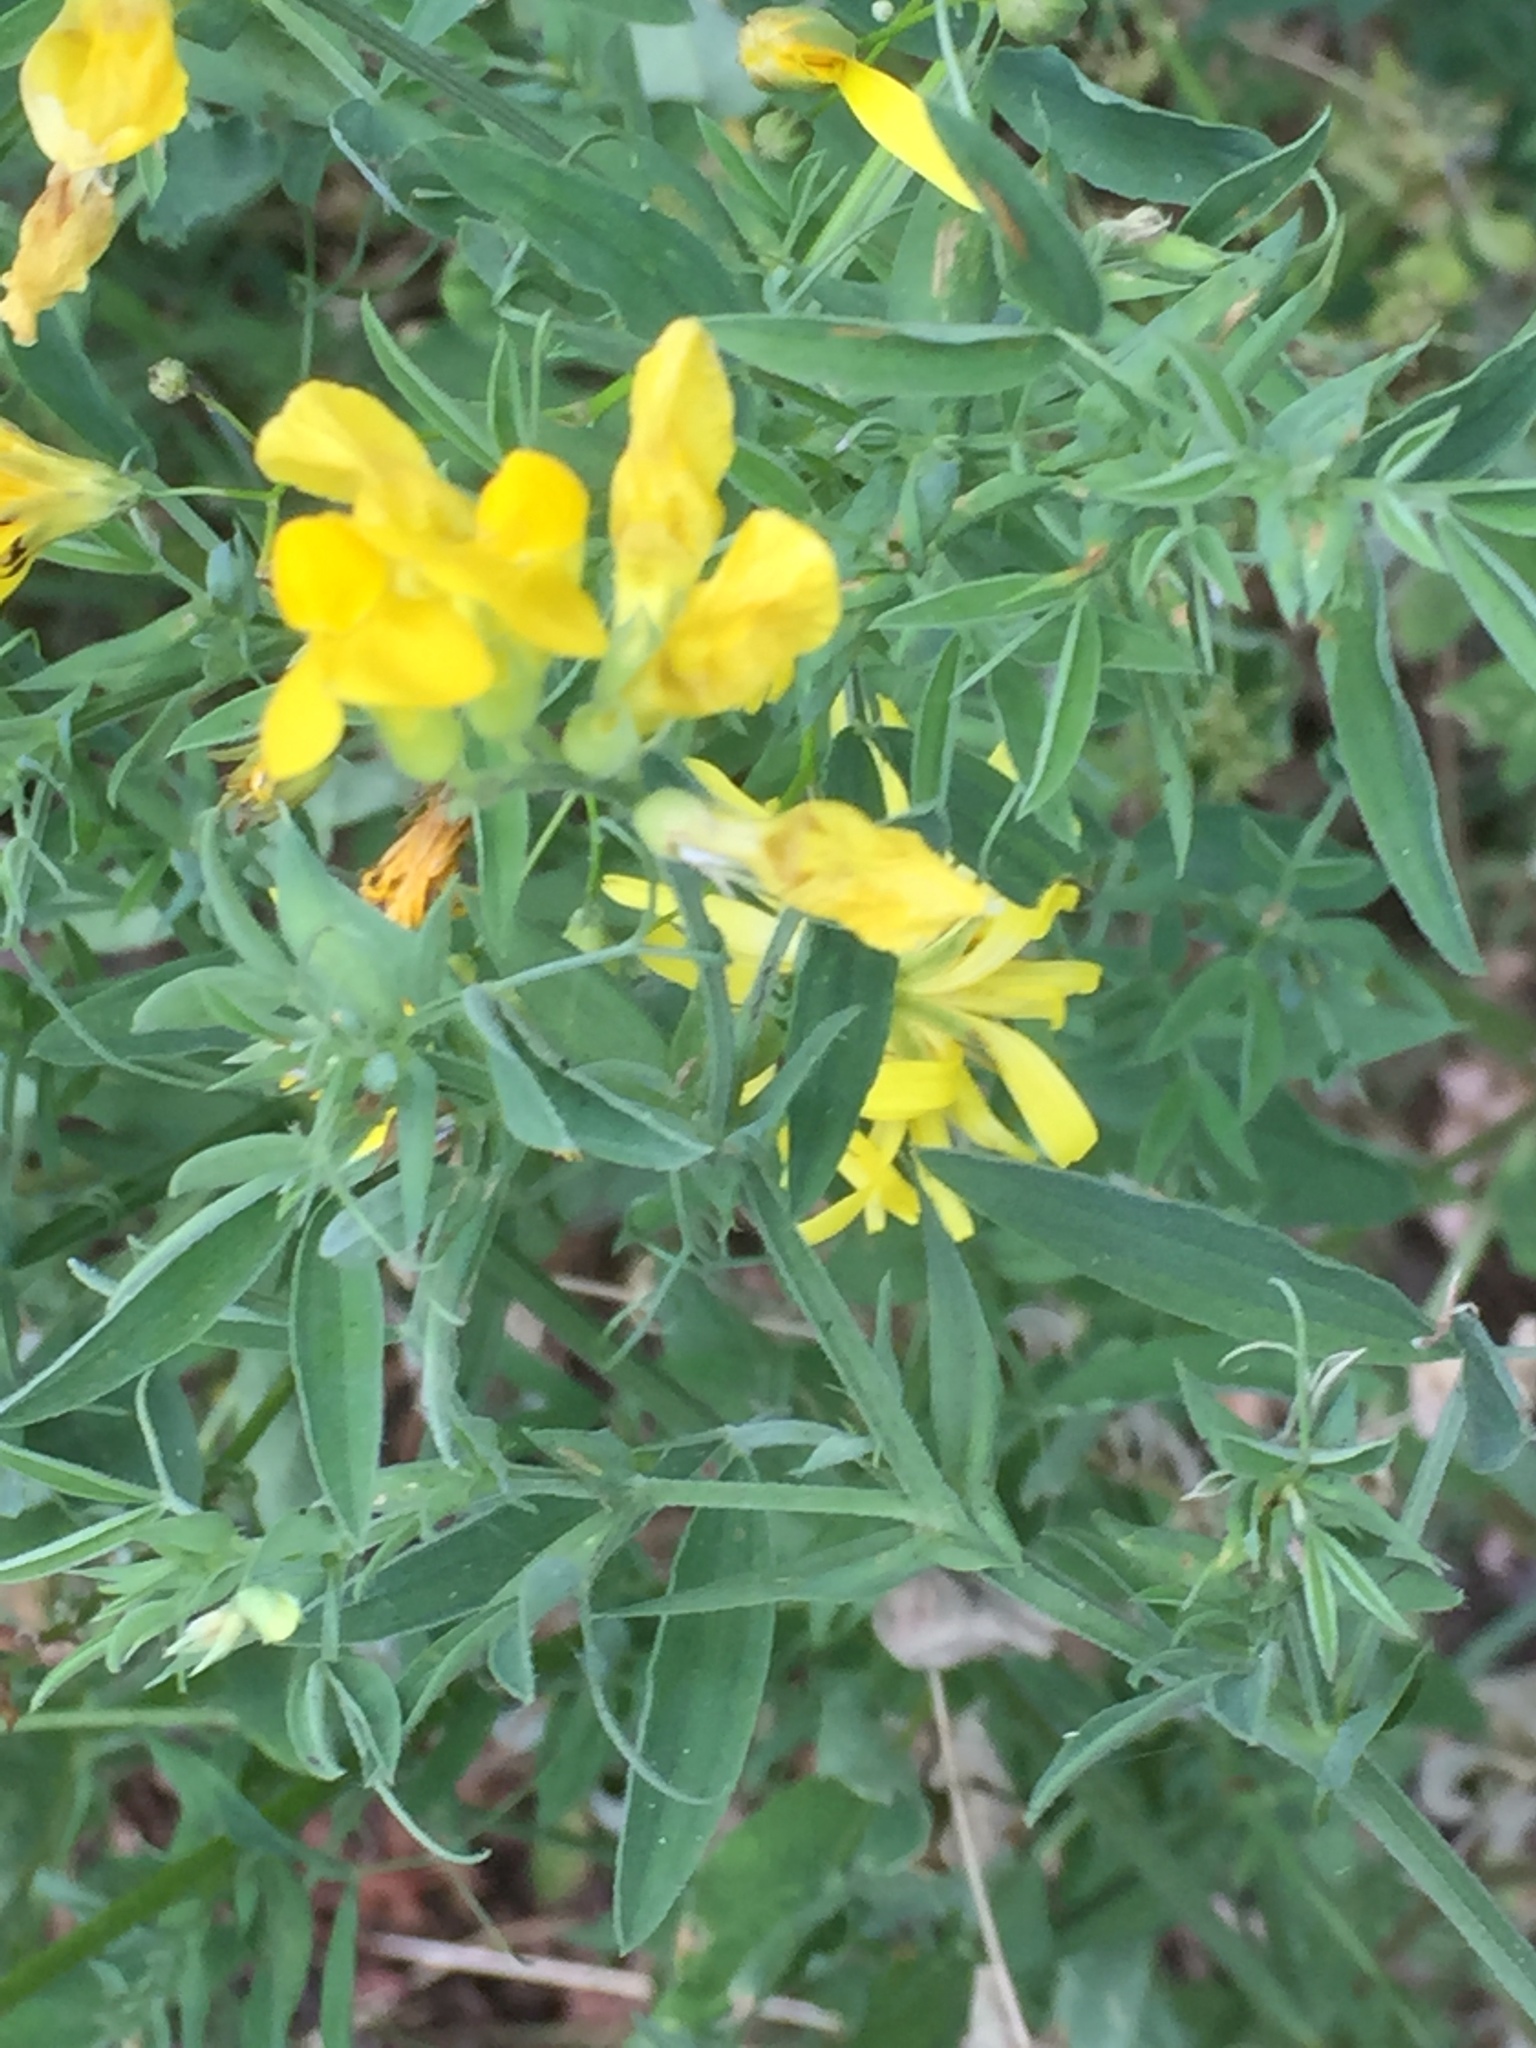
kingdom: Plantae
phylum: Tracheophyta
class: Magnoliopsida
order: Fabales
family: Fabaceae
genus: Lathyrus
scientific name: Lathyrus pratensis
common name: Meadow vetchling
